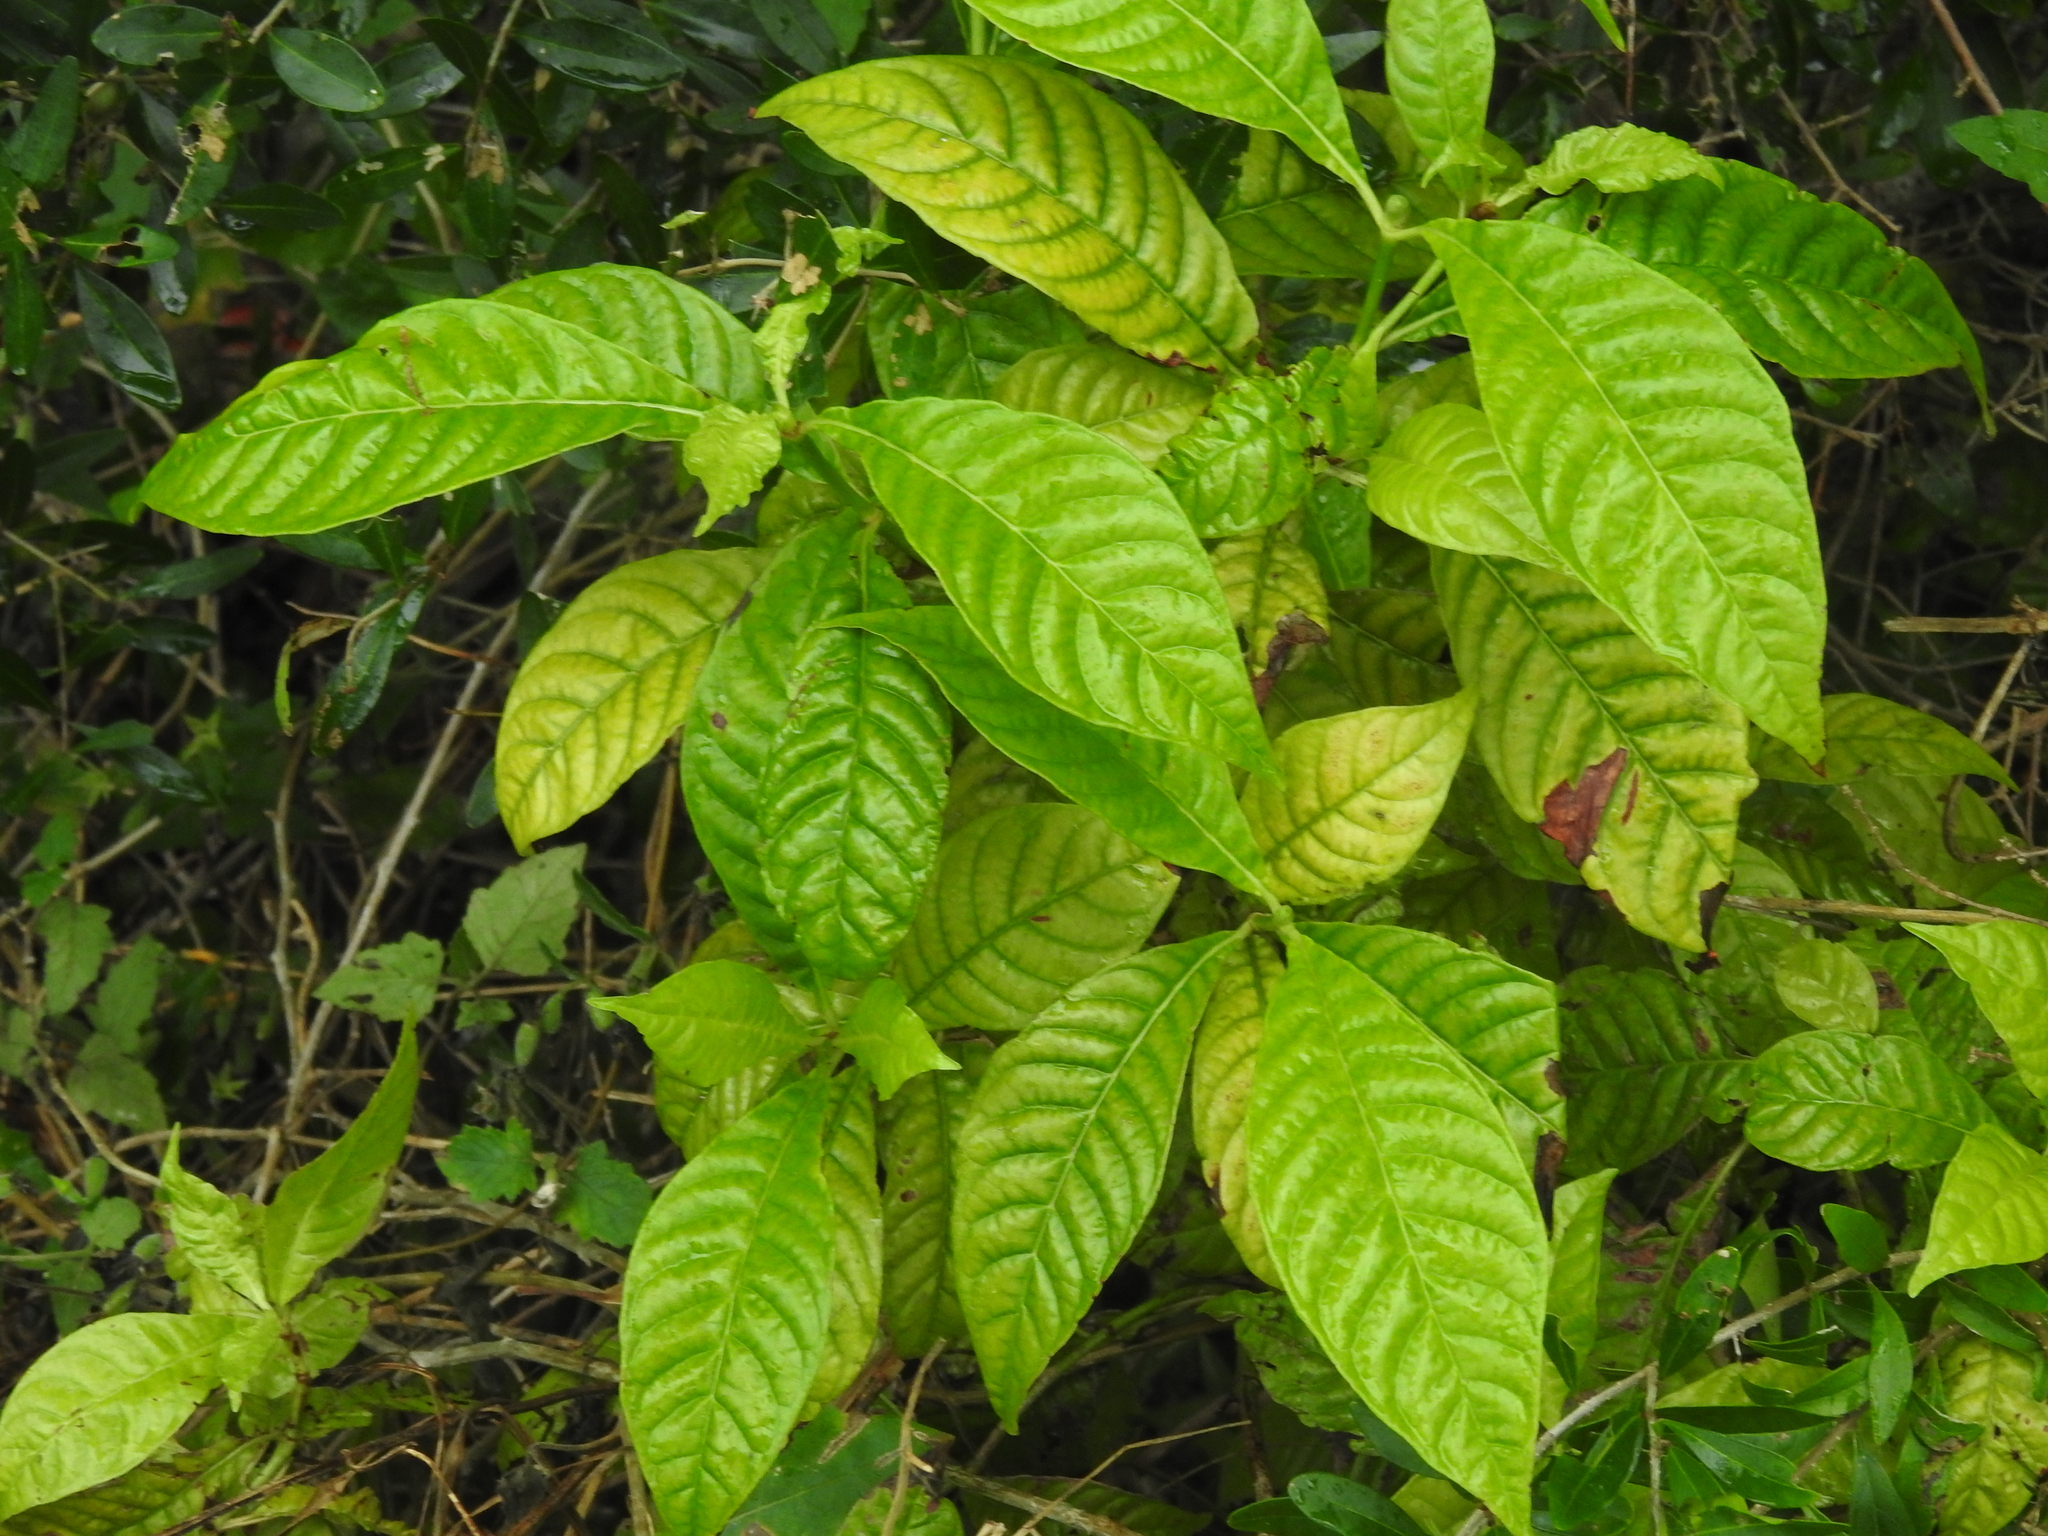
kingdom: Plantae
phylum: Tracheophyta
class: Magnoliopsida
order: Gentianales
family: Rubiaceae
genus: Psychotria
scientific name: Psychotria nervosa
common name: Bastard cankerberry
